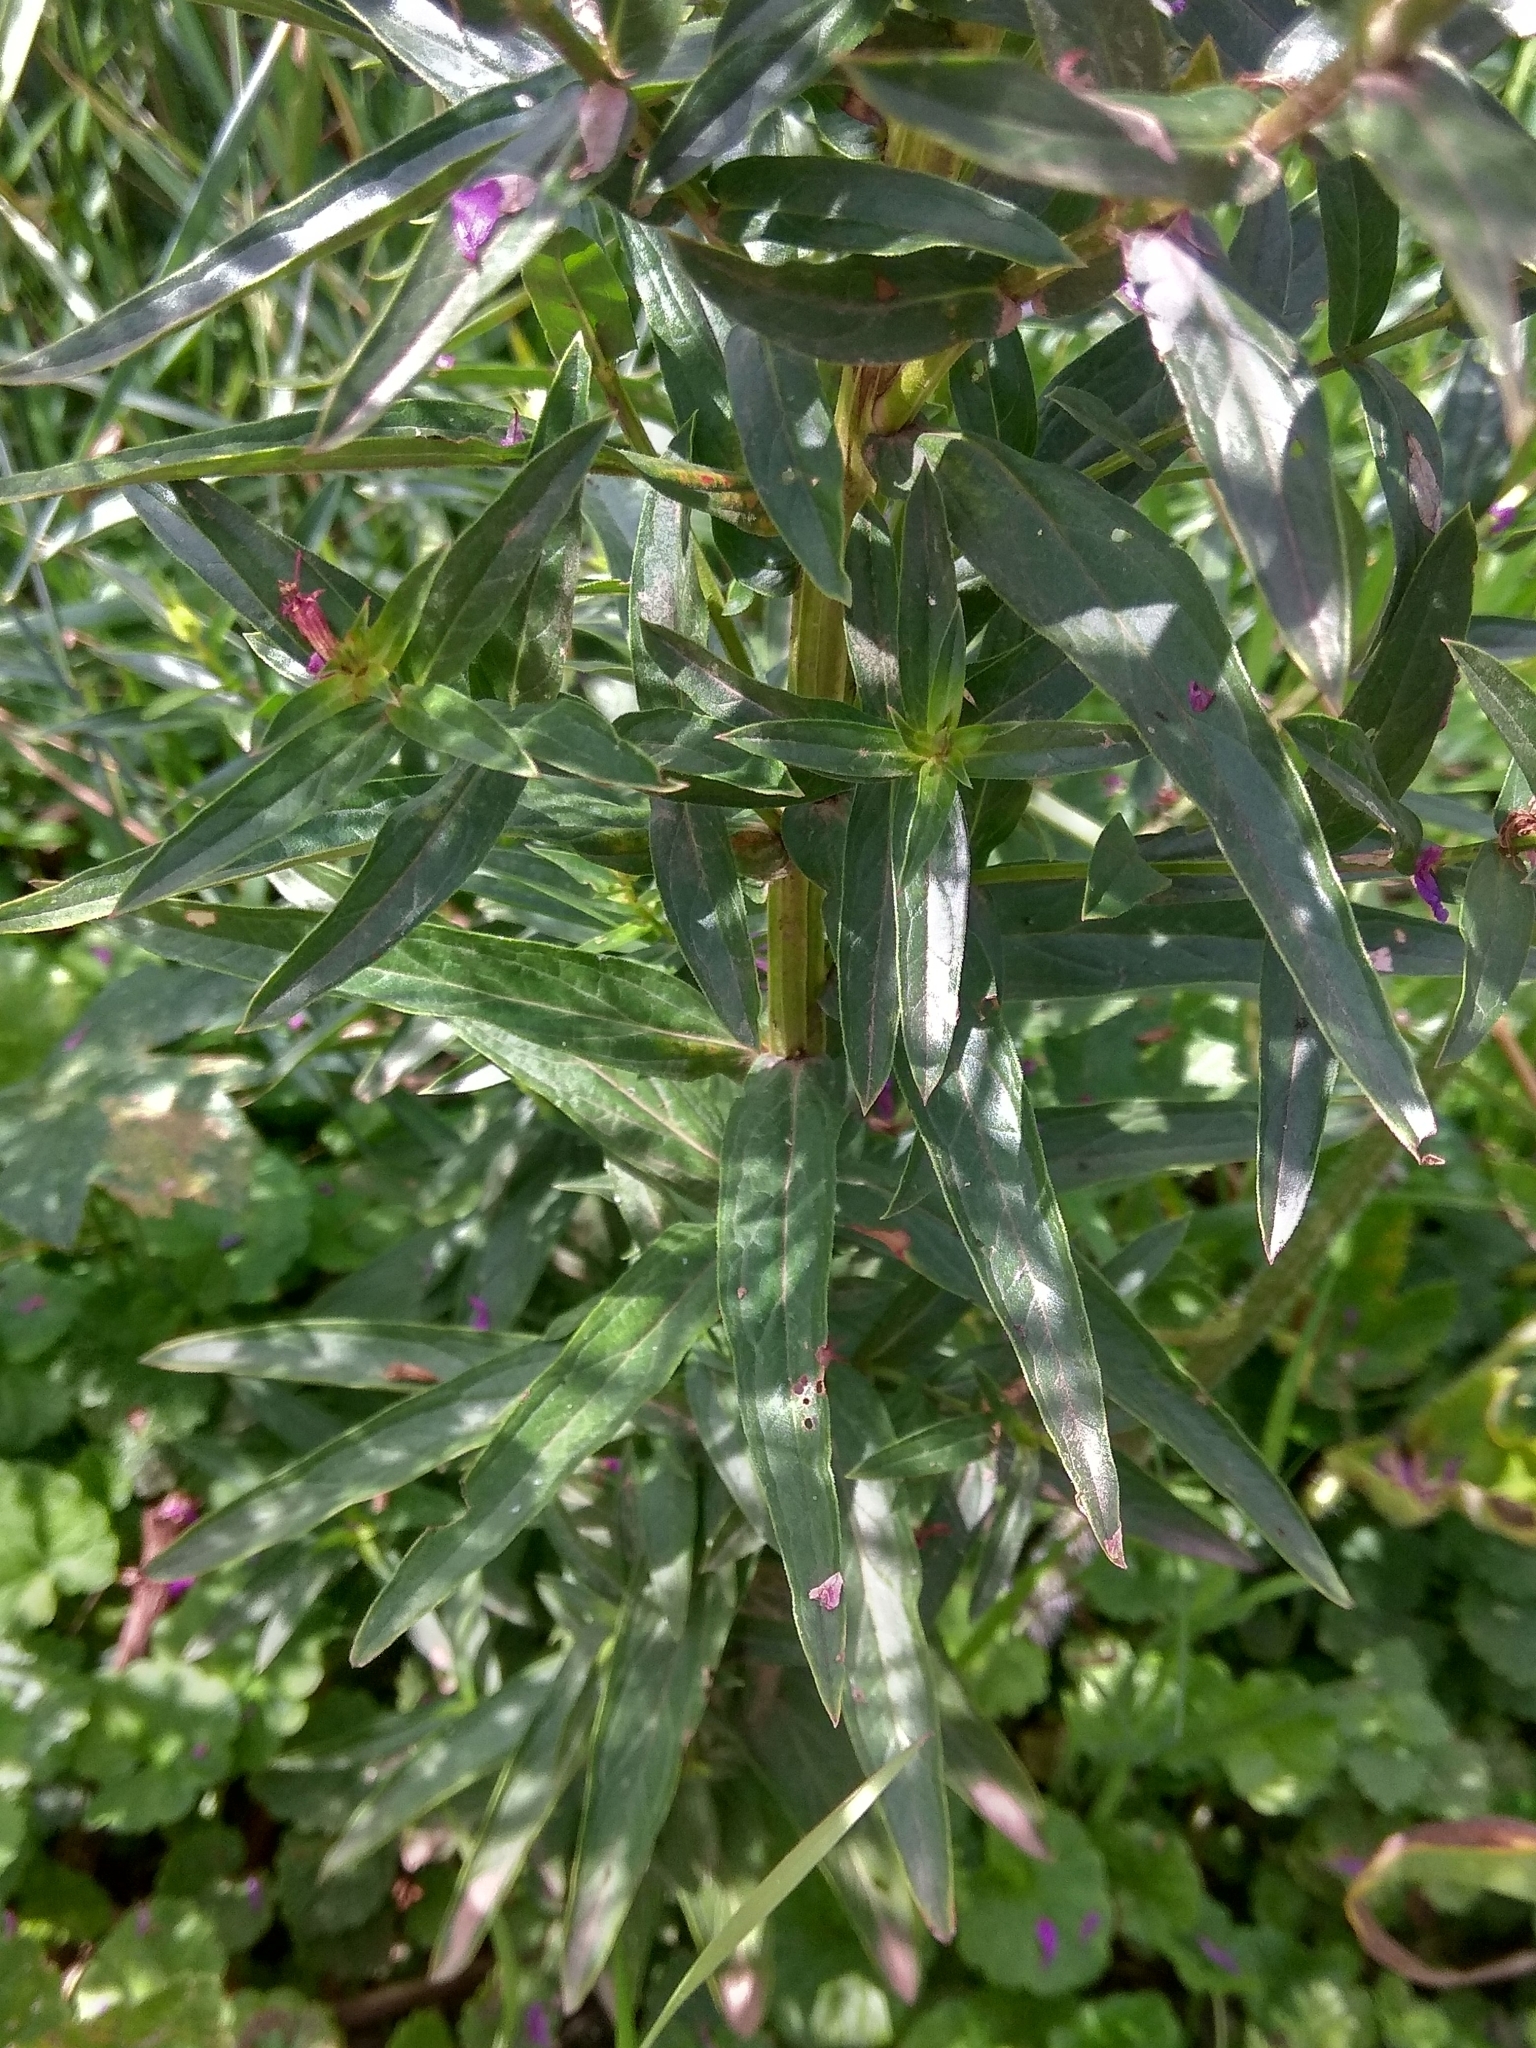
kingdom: Plantae
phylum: Tracheophyta
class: Magnoliopsida
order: Myrtales
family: Lythraceae
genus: Lythrum
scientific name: Lythrum salicaria
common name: Purple loosestrife
